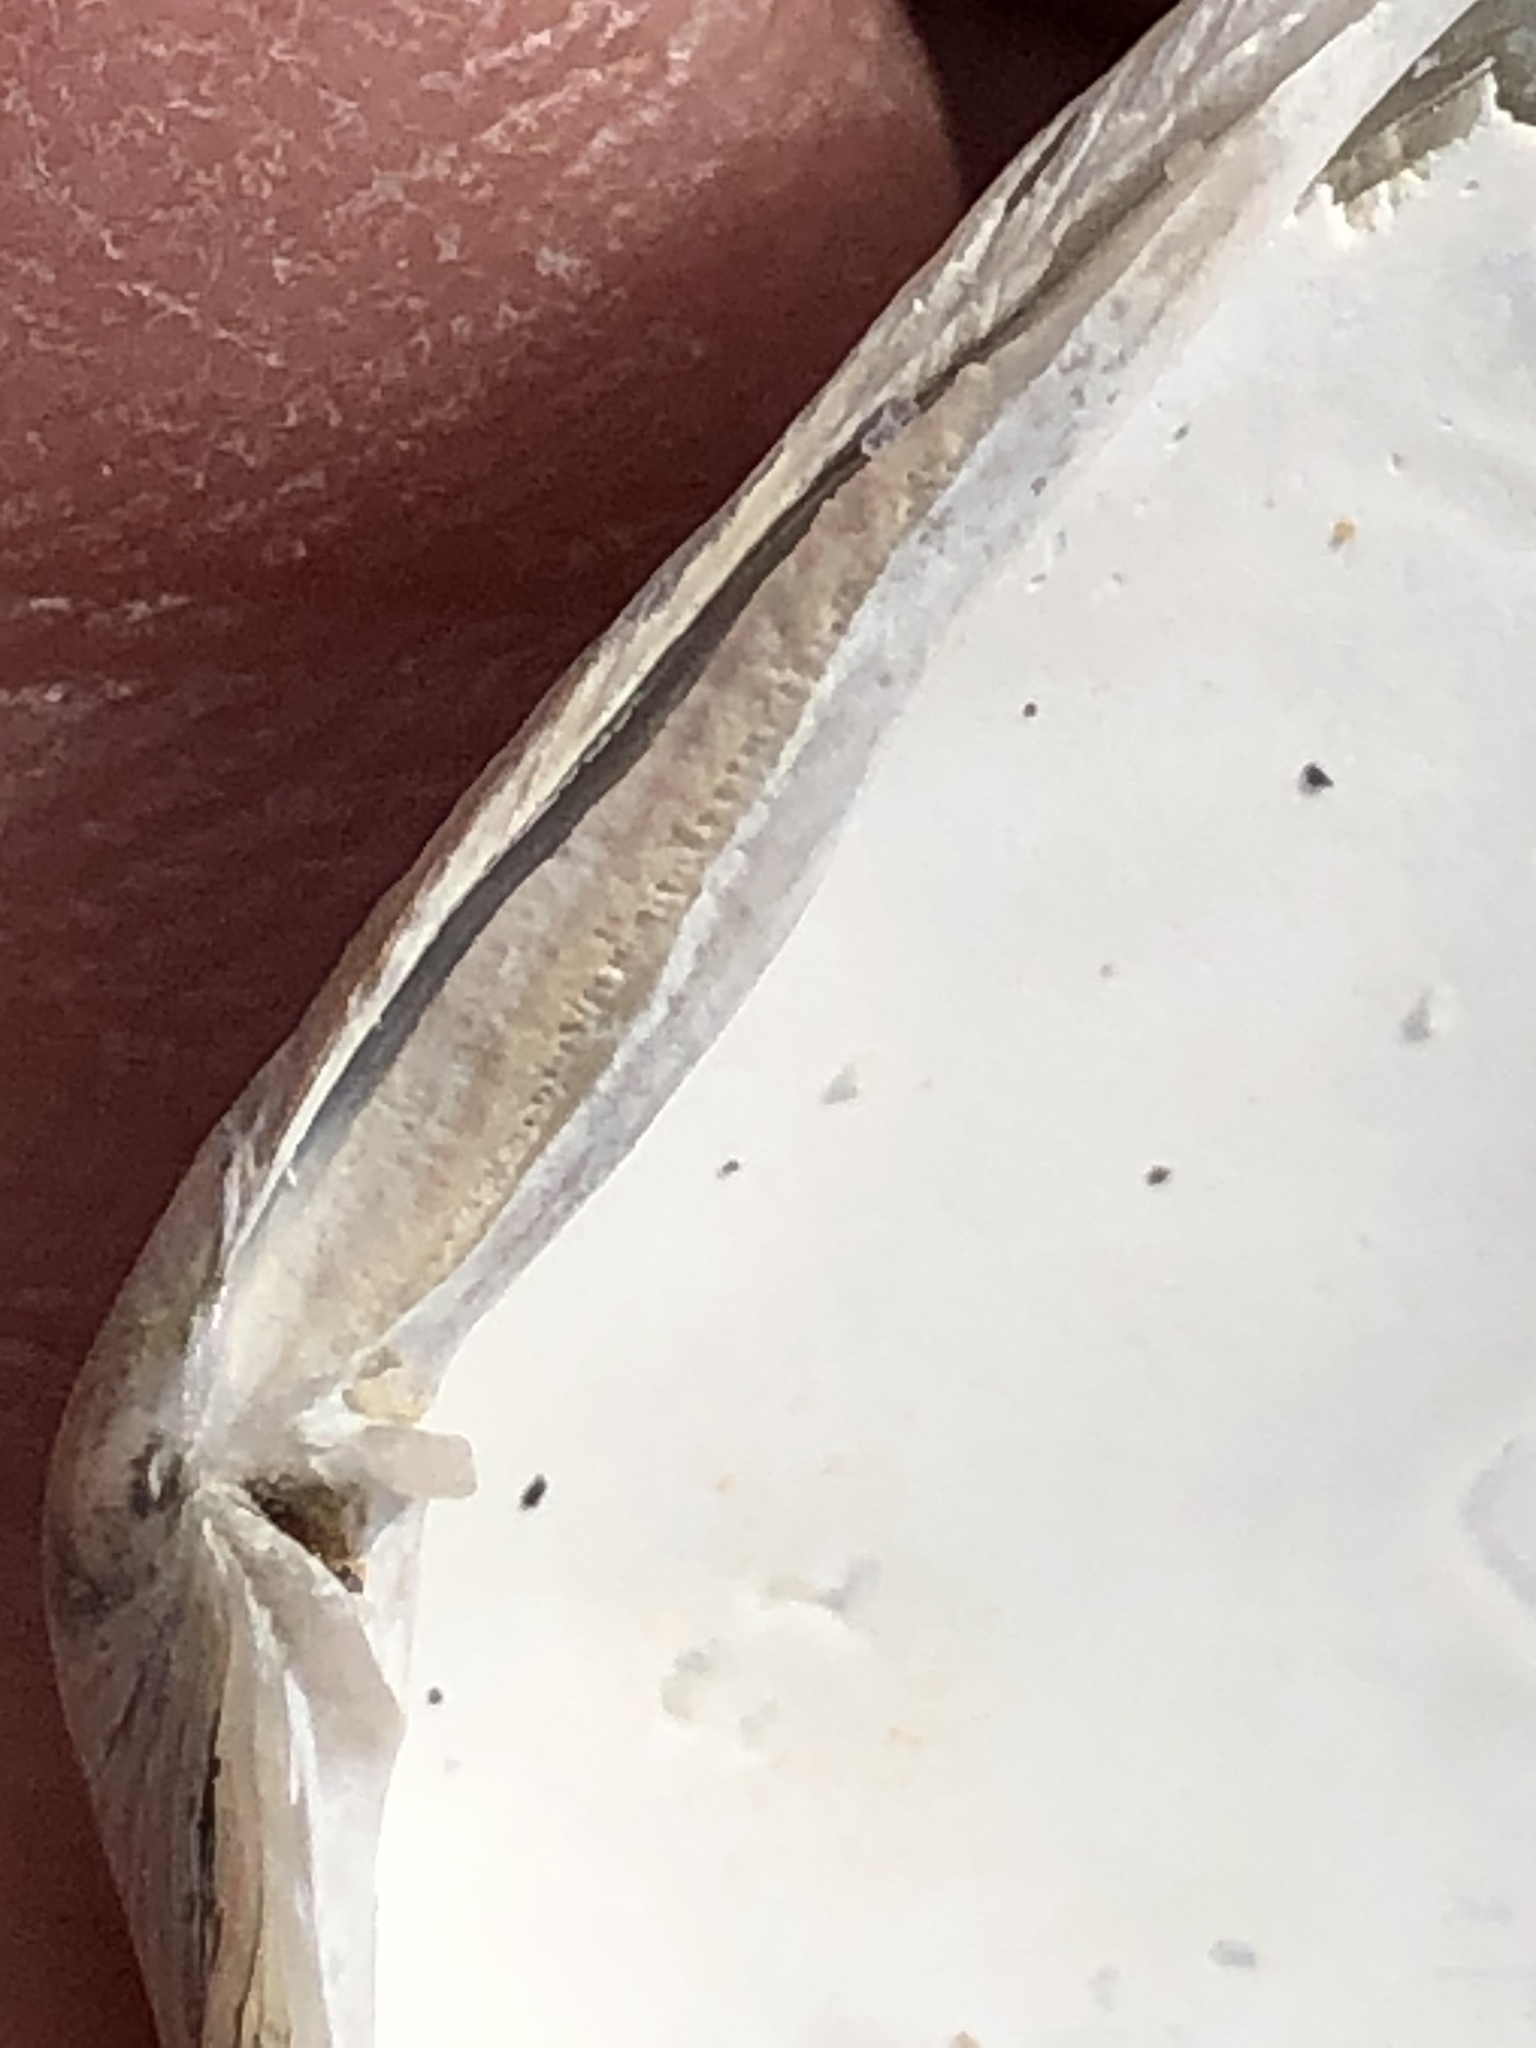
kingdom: Animalia
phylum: Mollusca
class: Bivalvia
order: Cardiida
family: Tellinidae
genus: Macoma
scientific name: Macoma nasuta
